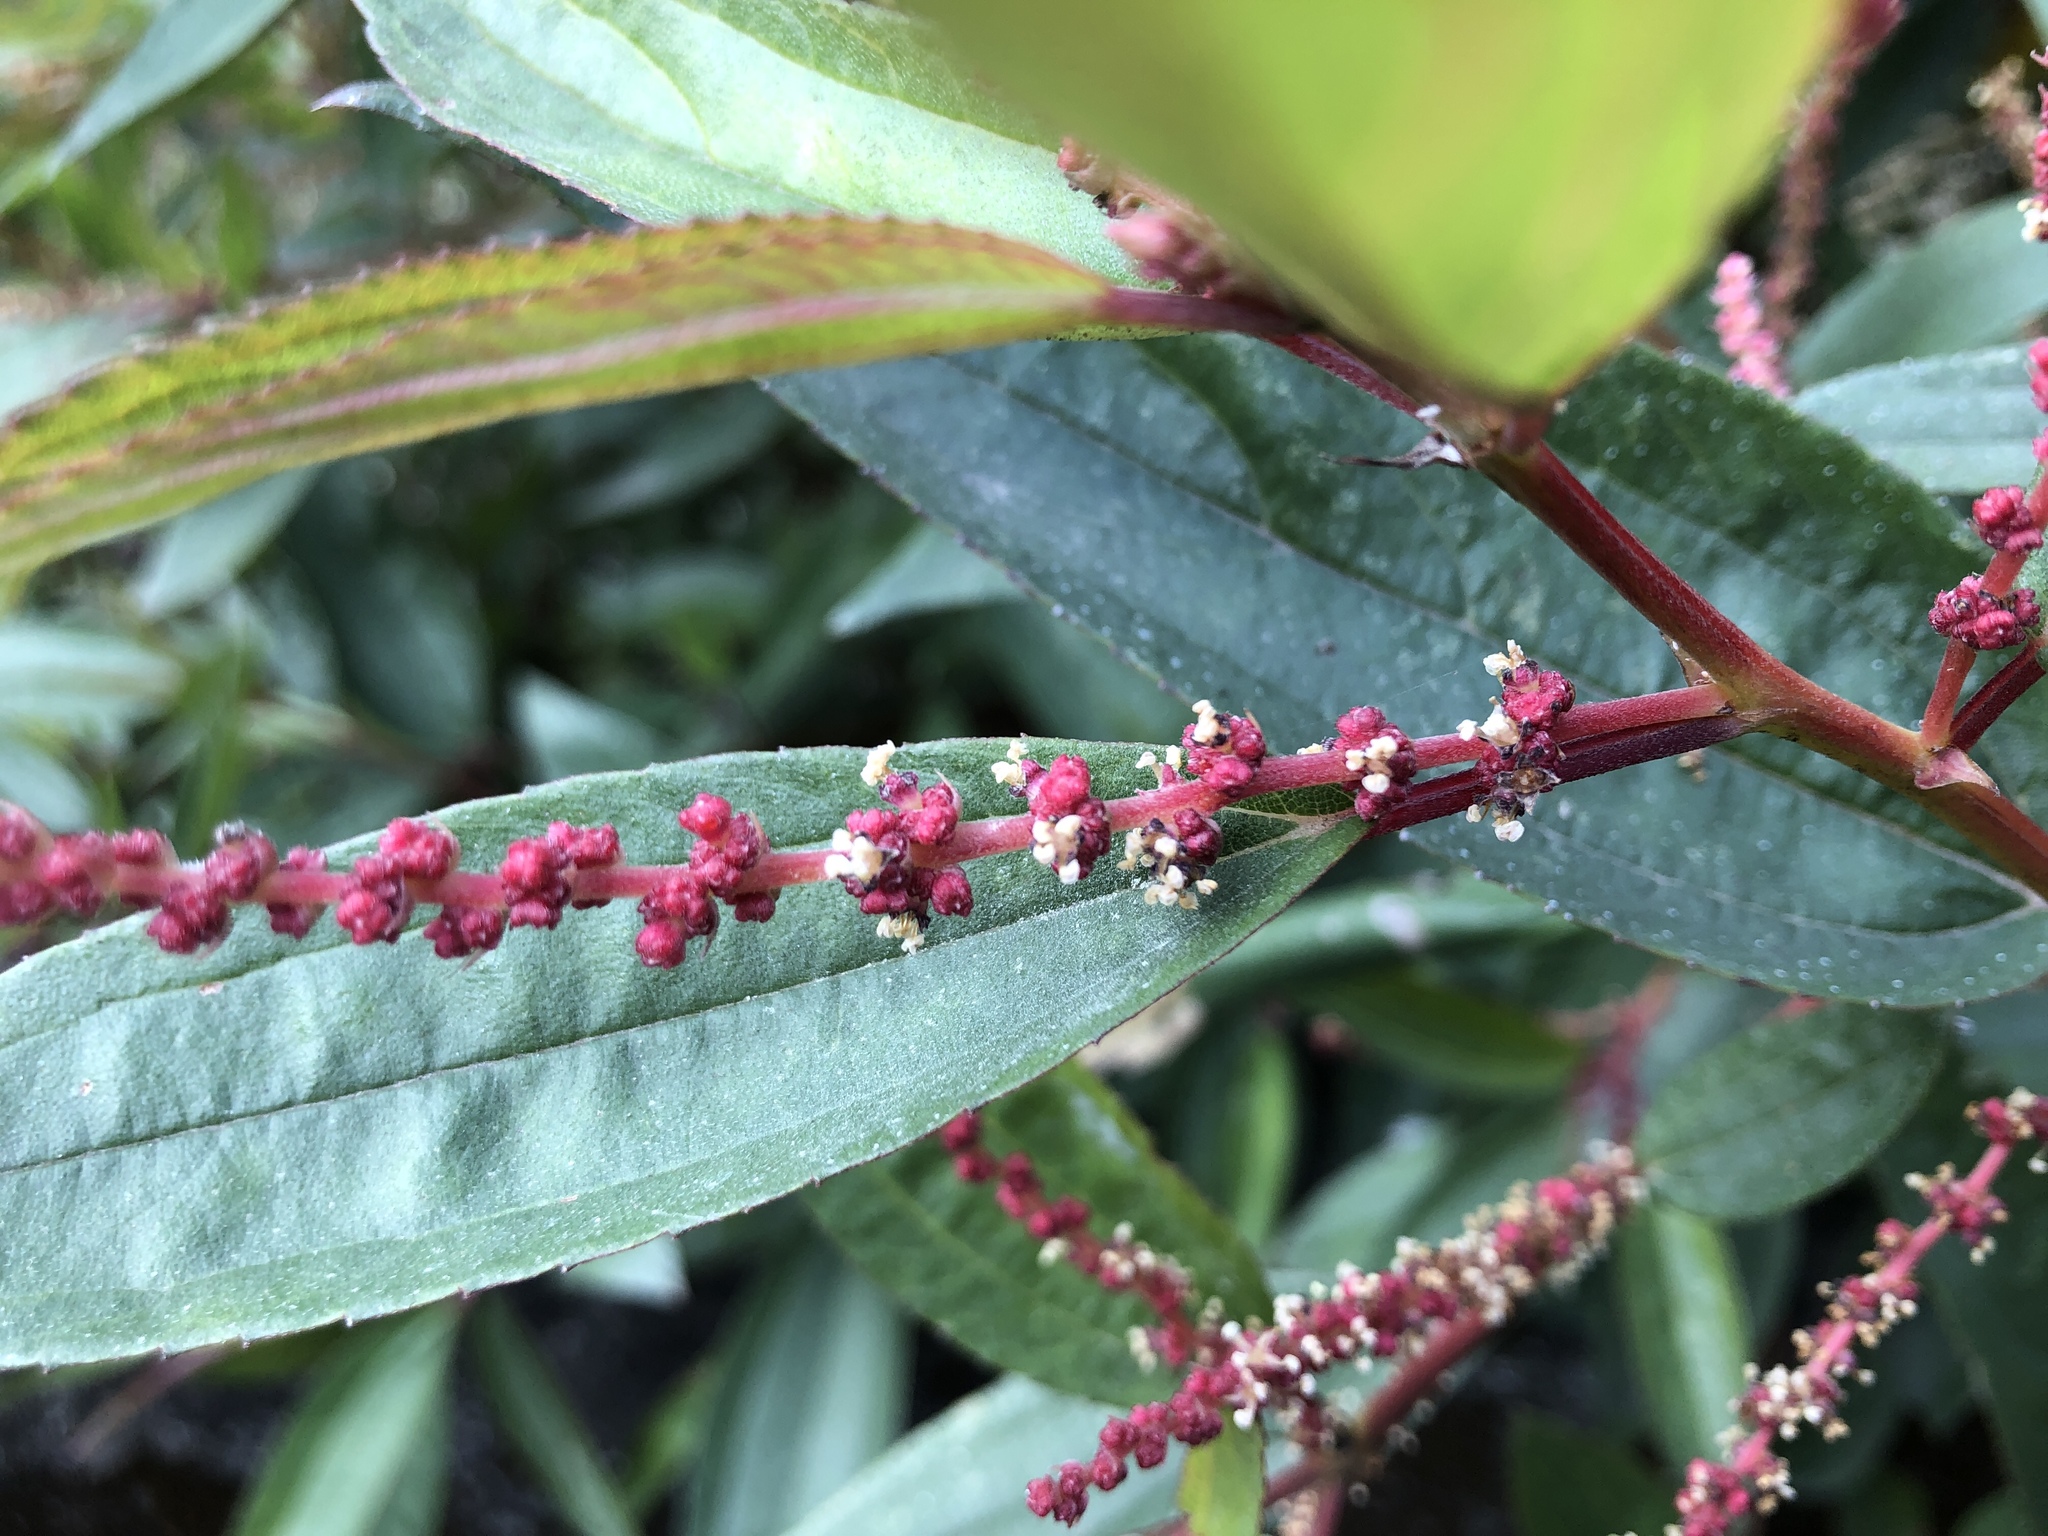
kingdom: Plantae
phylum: Tracheophyta
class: Magnoliopsida
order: Rosales
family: Urticaceae
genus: Boehmeria
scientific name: Boehmeria densiflora
